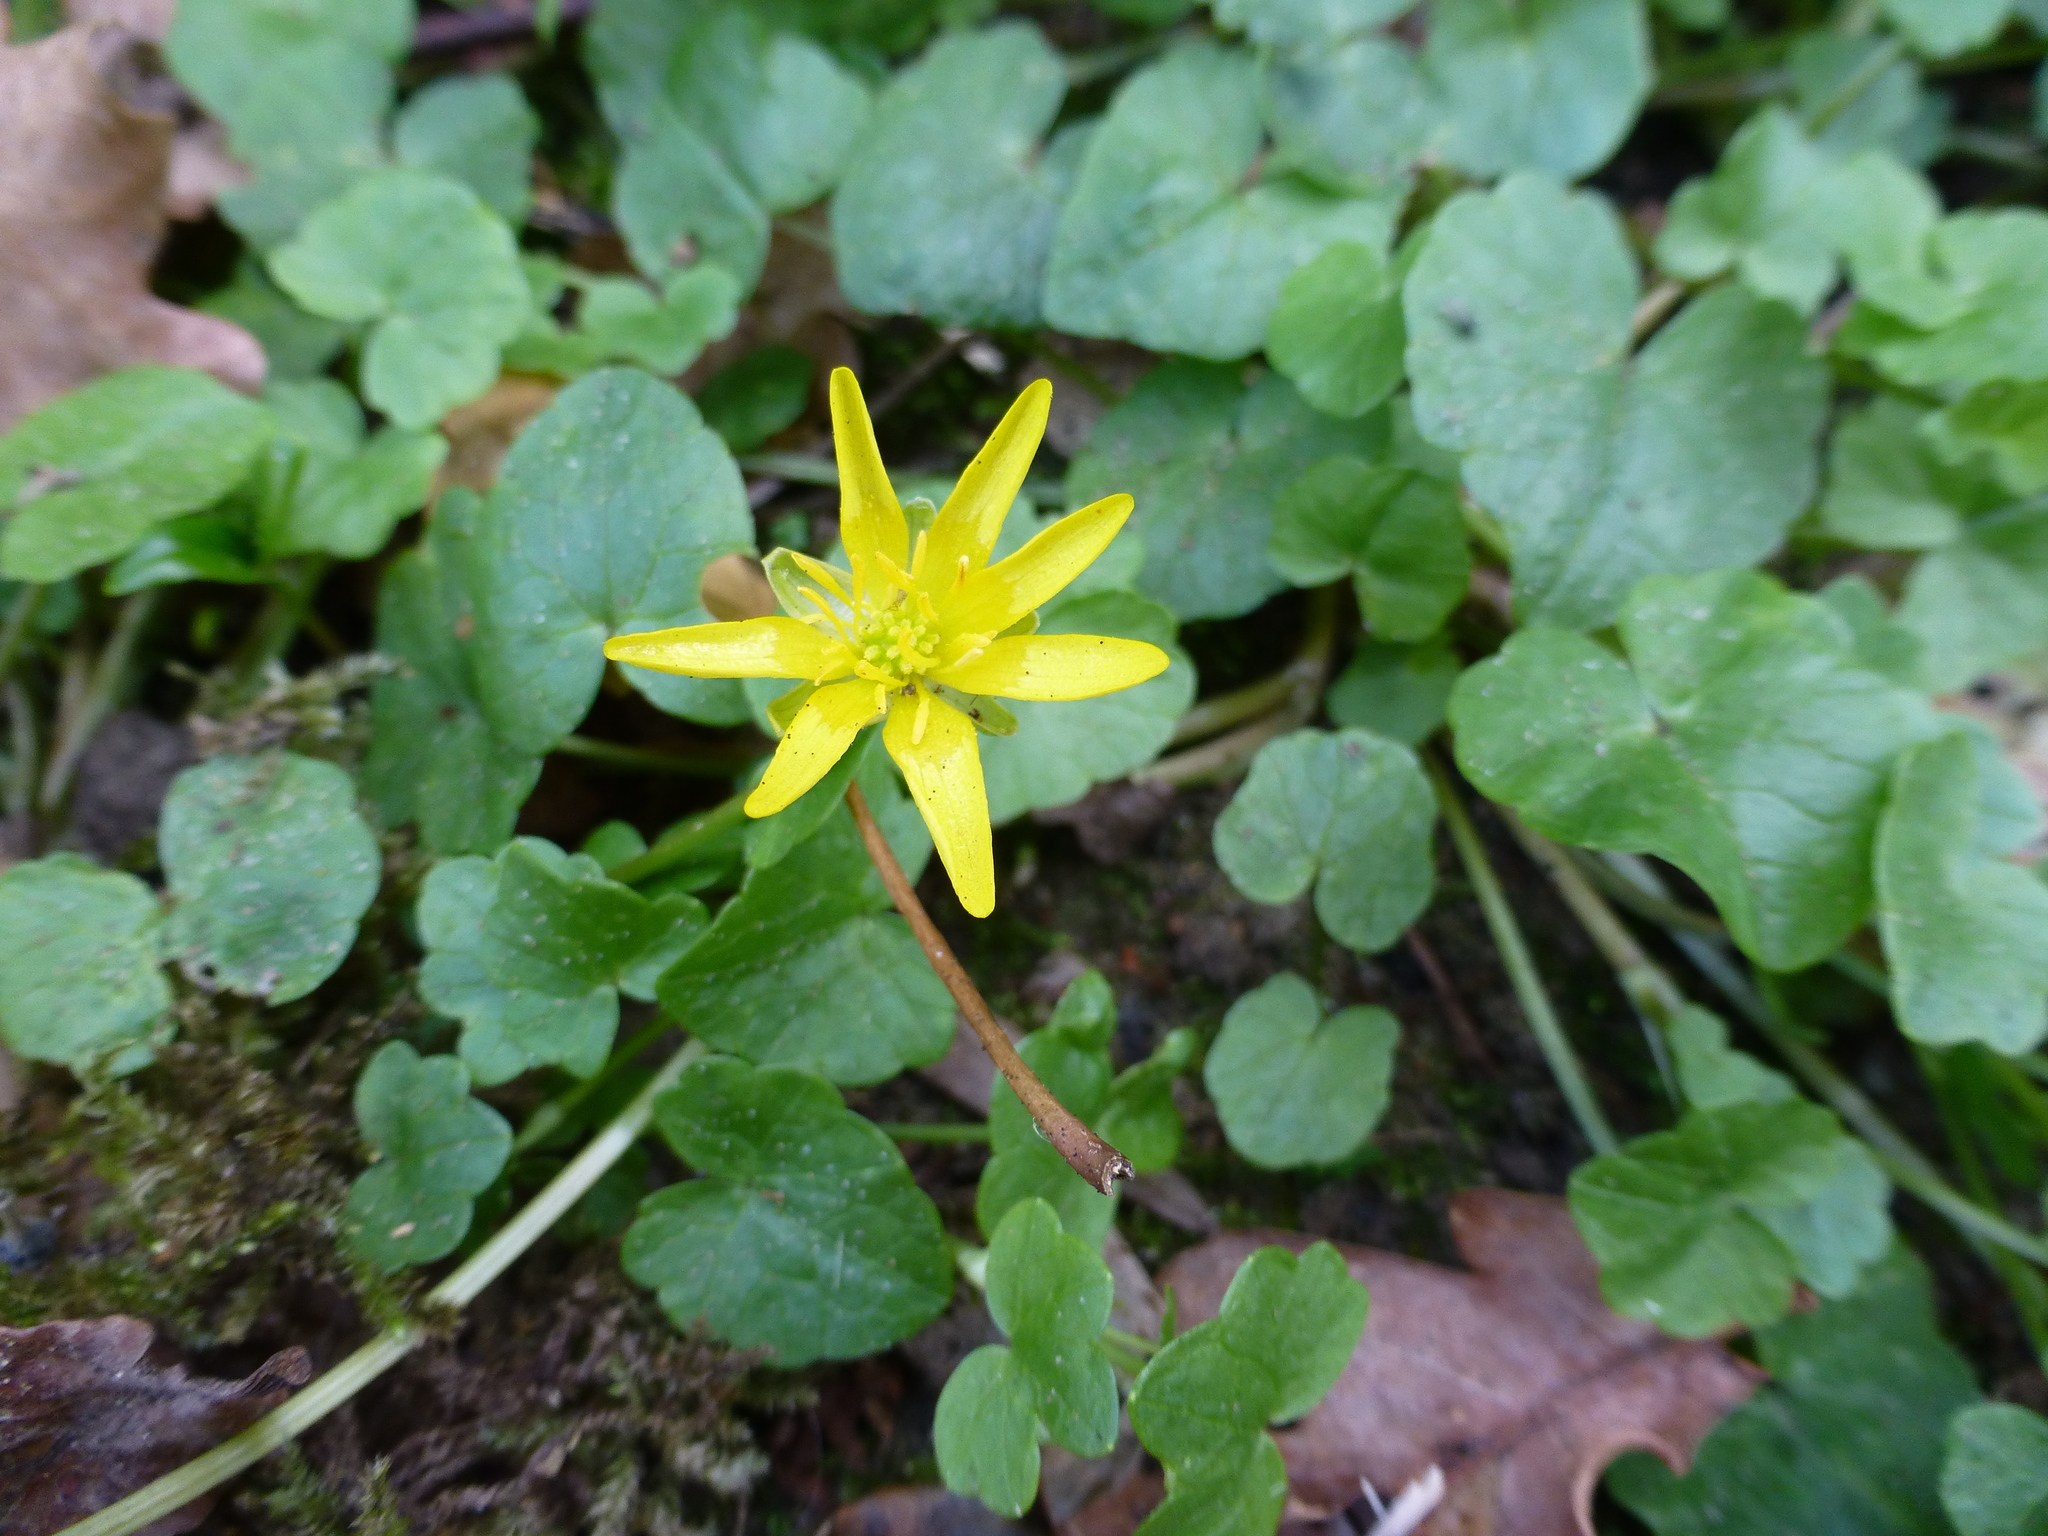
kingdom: Plantae
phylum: Tracheophyta
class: Magnoliopsida
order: Ranunculales
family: Ranunculaceae
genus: Ficaria
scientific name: Ficaria verna
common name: Lesser celandine
